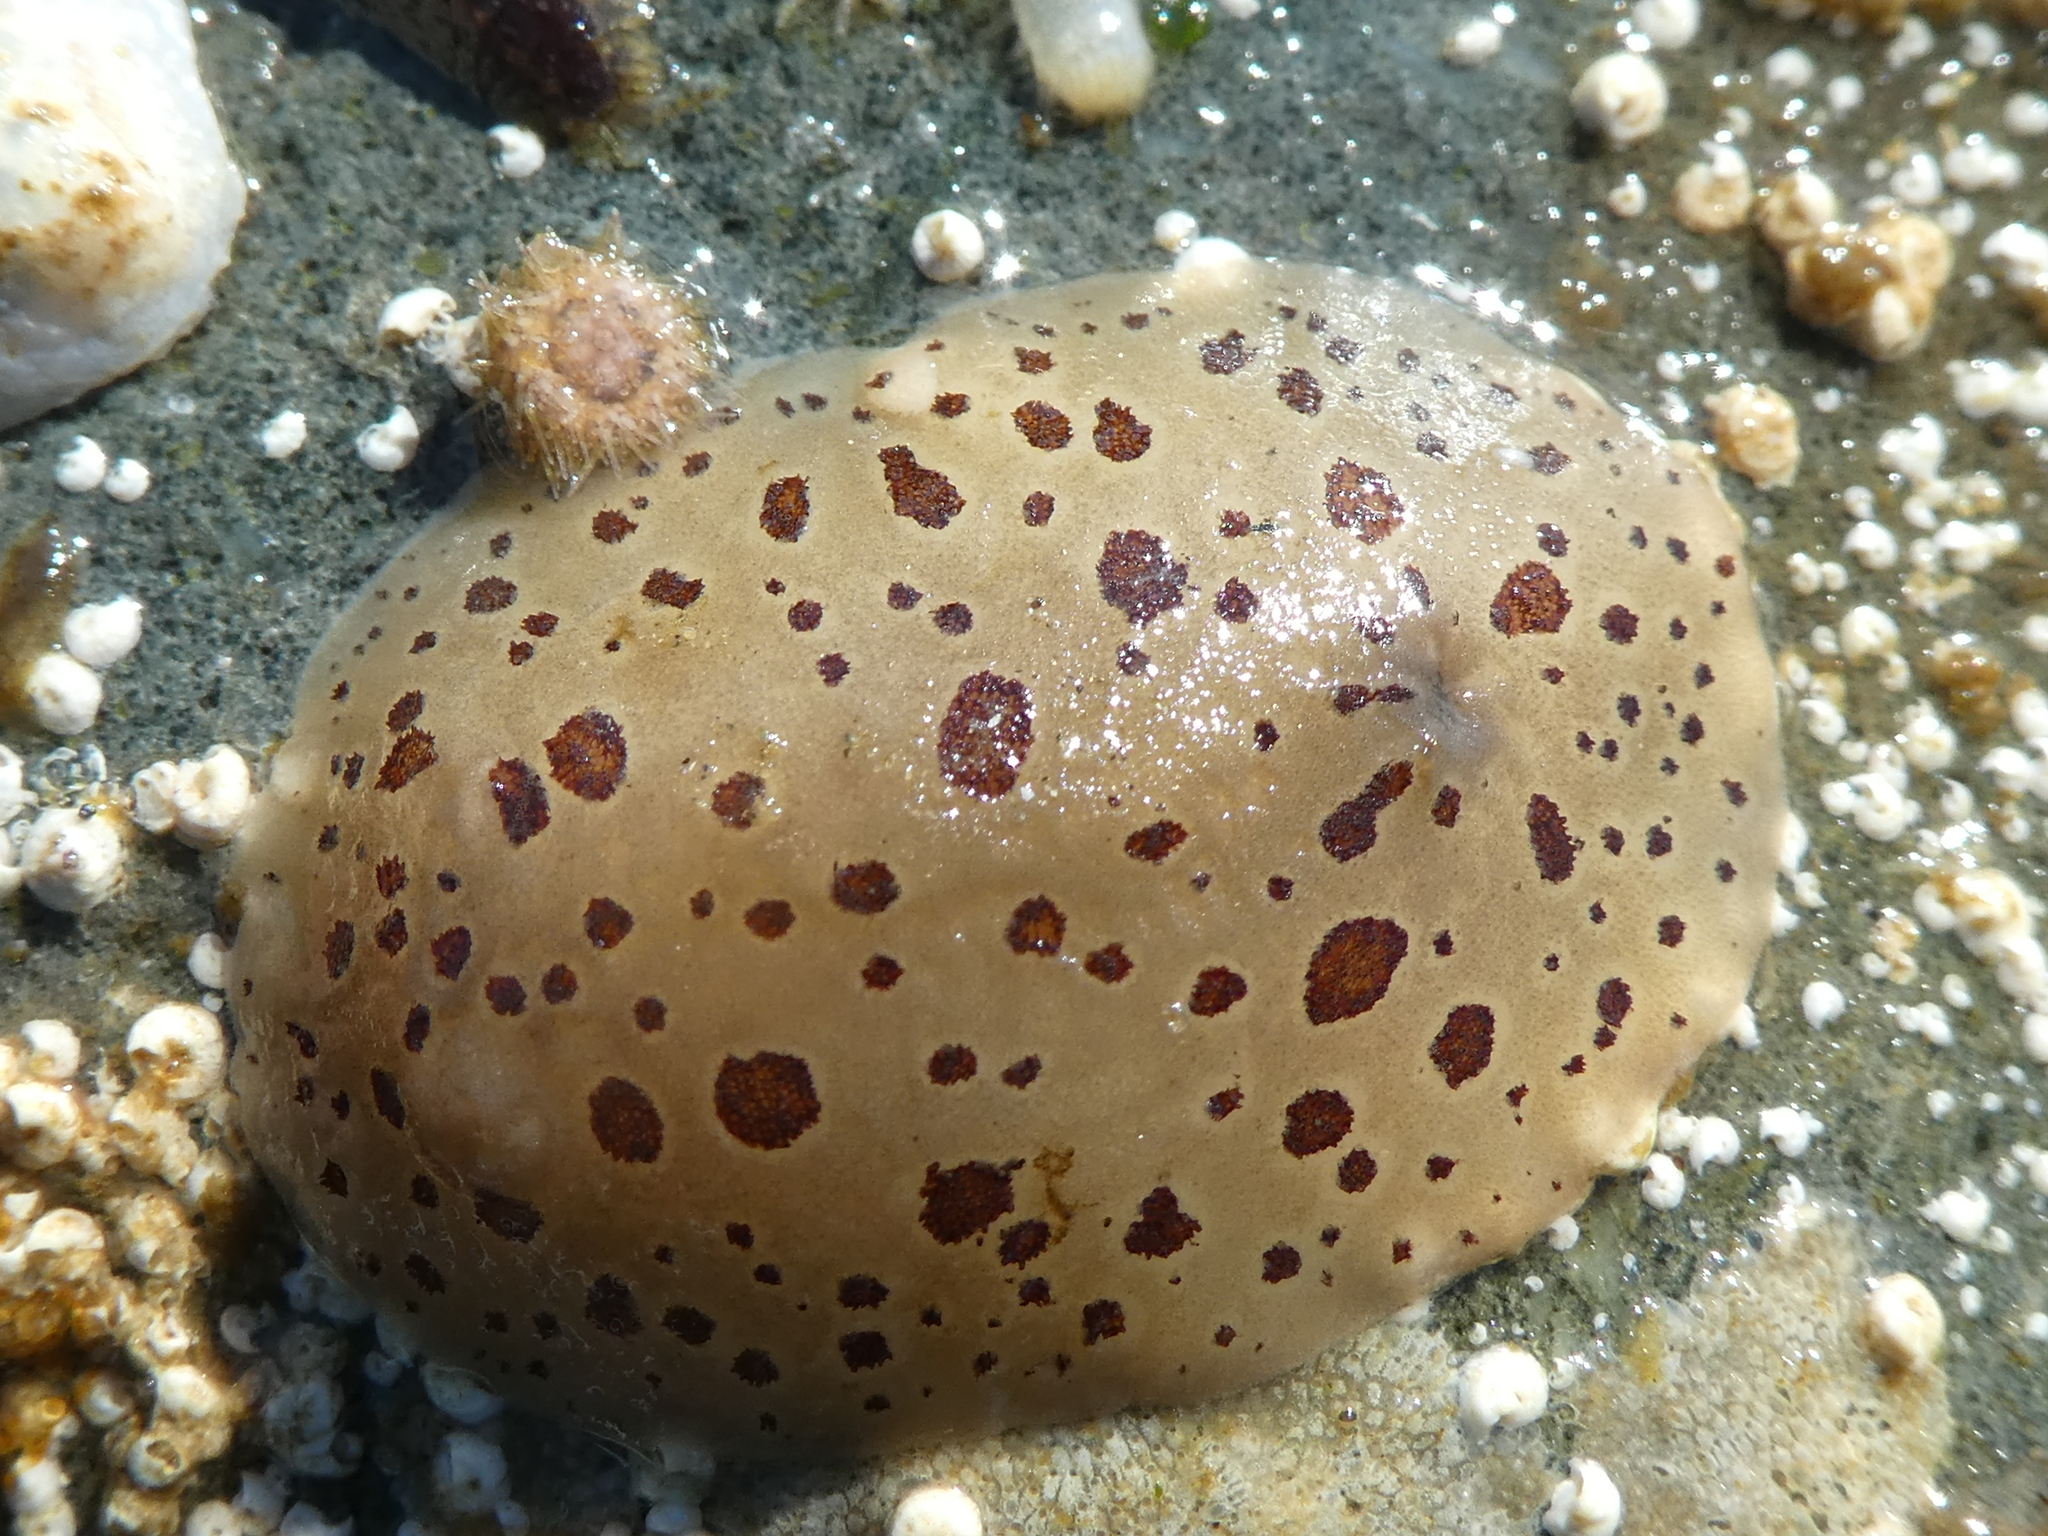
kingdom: Animalia
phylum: Mollusca
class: Gastropoda
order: Nudibranchia
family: Discodorididae
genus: Diaulula
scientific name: Diaulula odonoghuei
